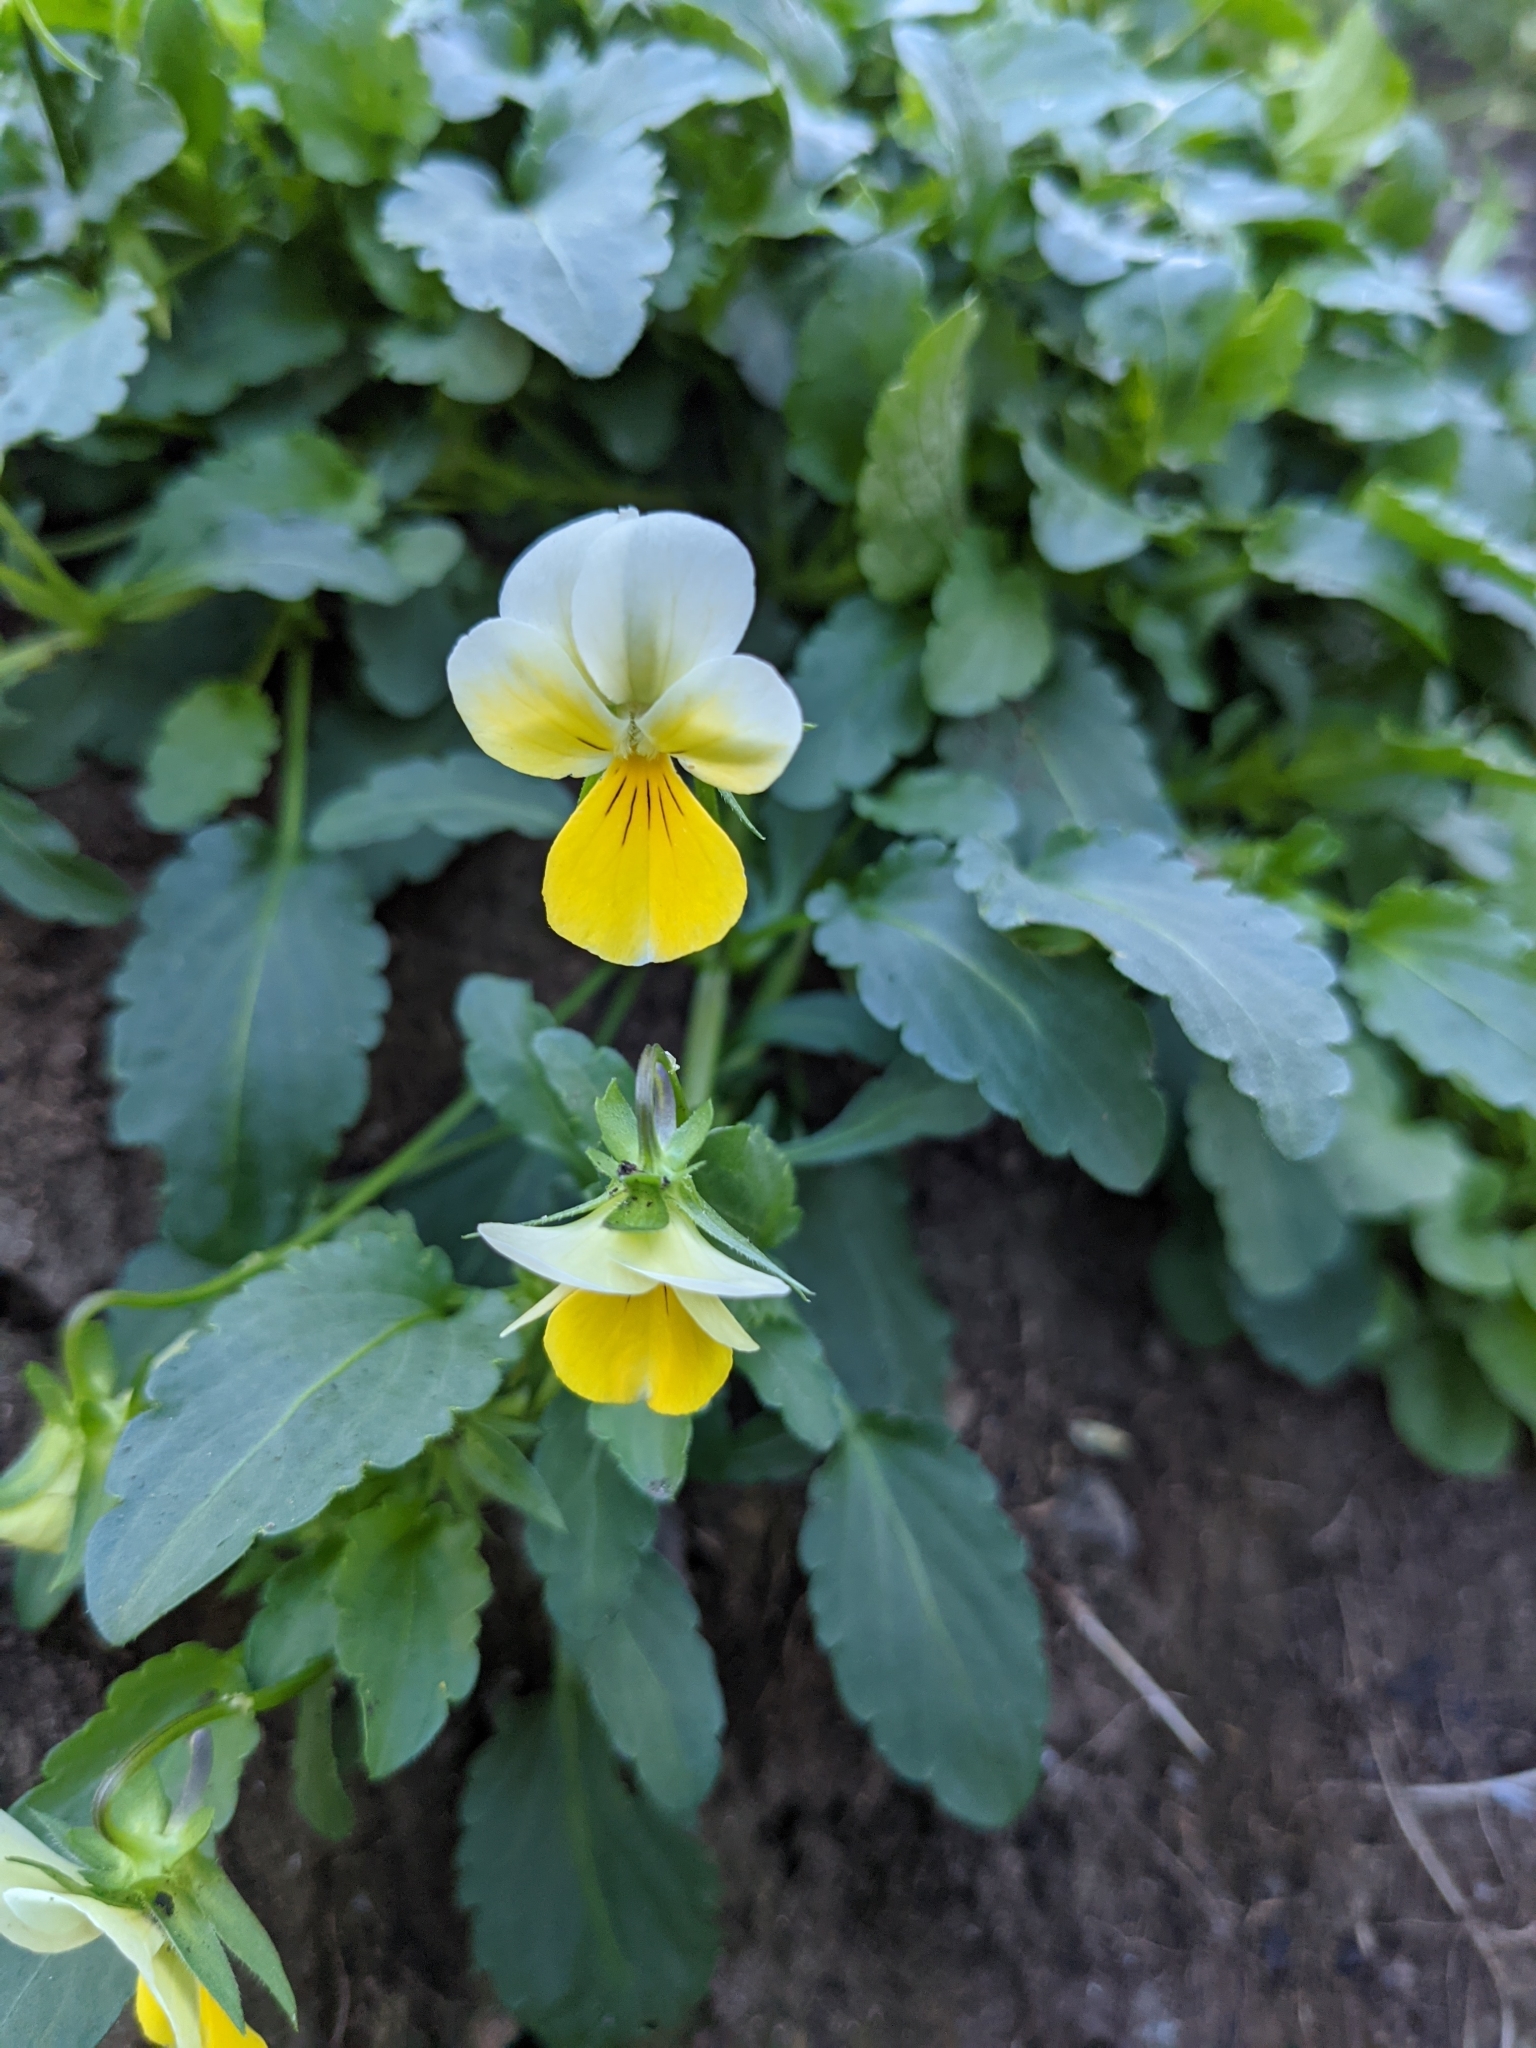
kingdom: Plantae
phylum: Tracheophyta
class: Magnoliopsida
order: Malpighiales
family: Violaceae
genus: Viola
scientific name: Viola tricolor
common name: Pansy
